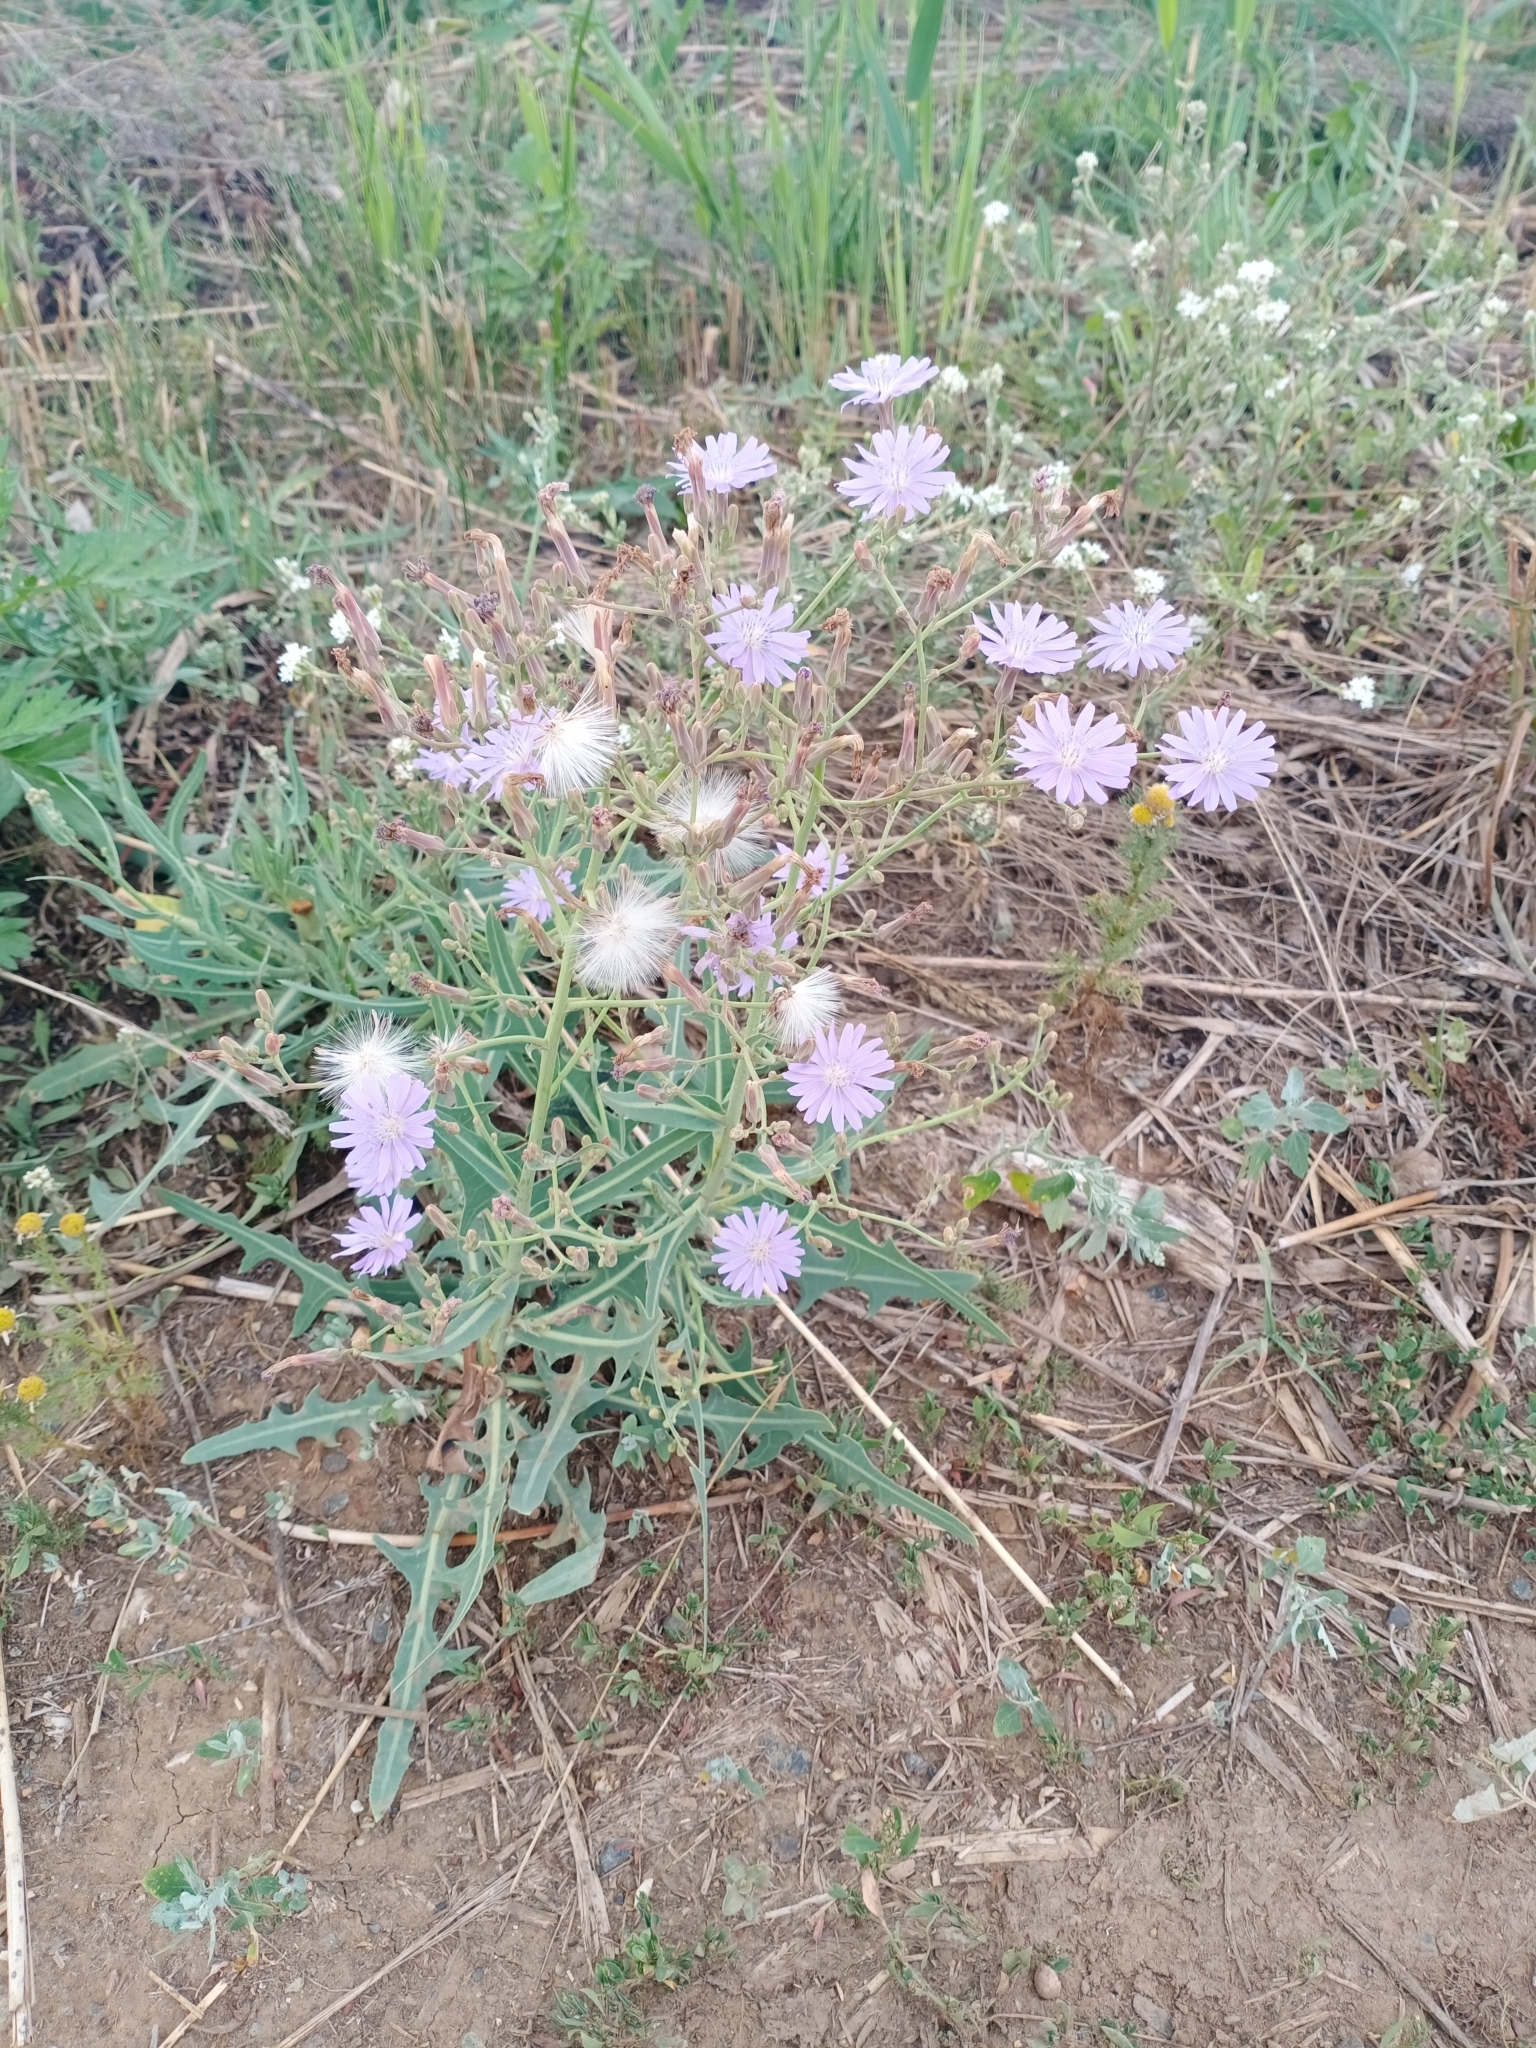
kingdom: Plantae
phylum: Tracheophyta
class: Magnoliopsida
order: Asterales
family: Asteraceae
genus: Lactuca
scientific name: Lactuca tatarica
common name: Blue lettuce
